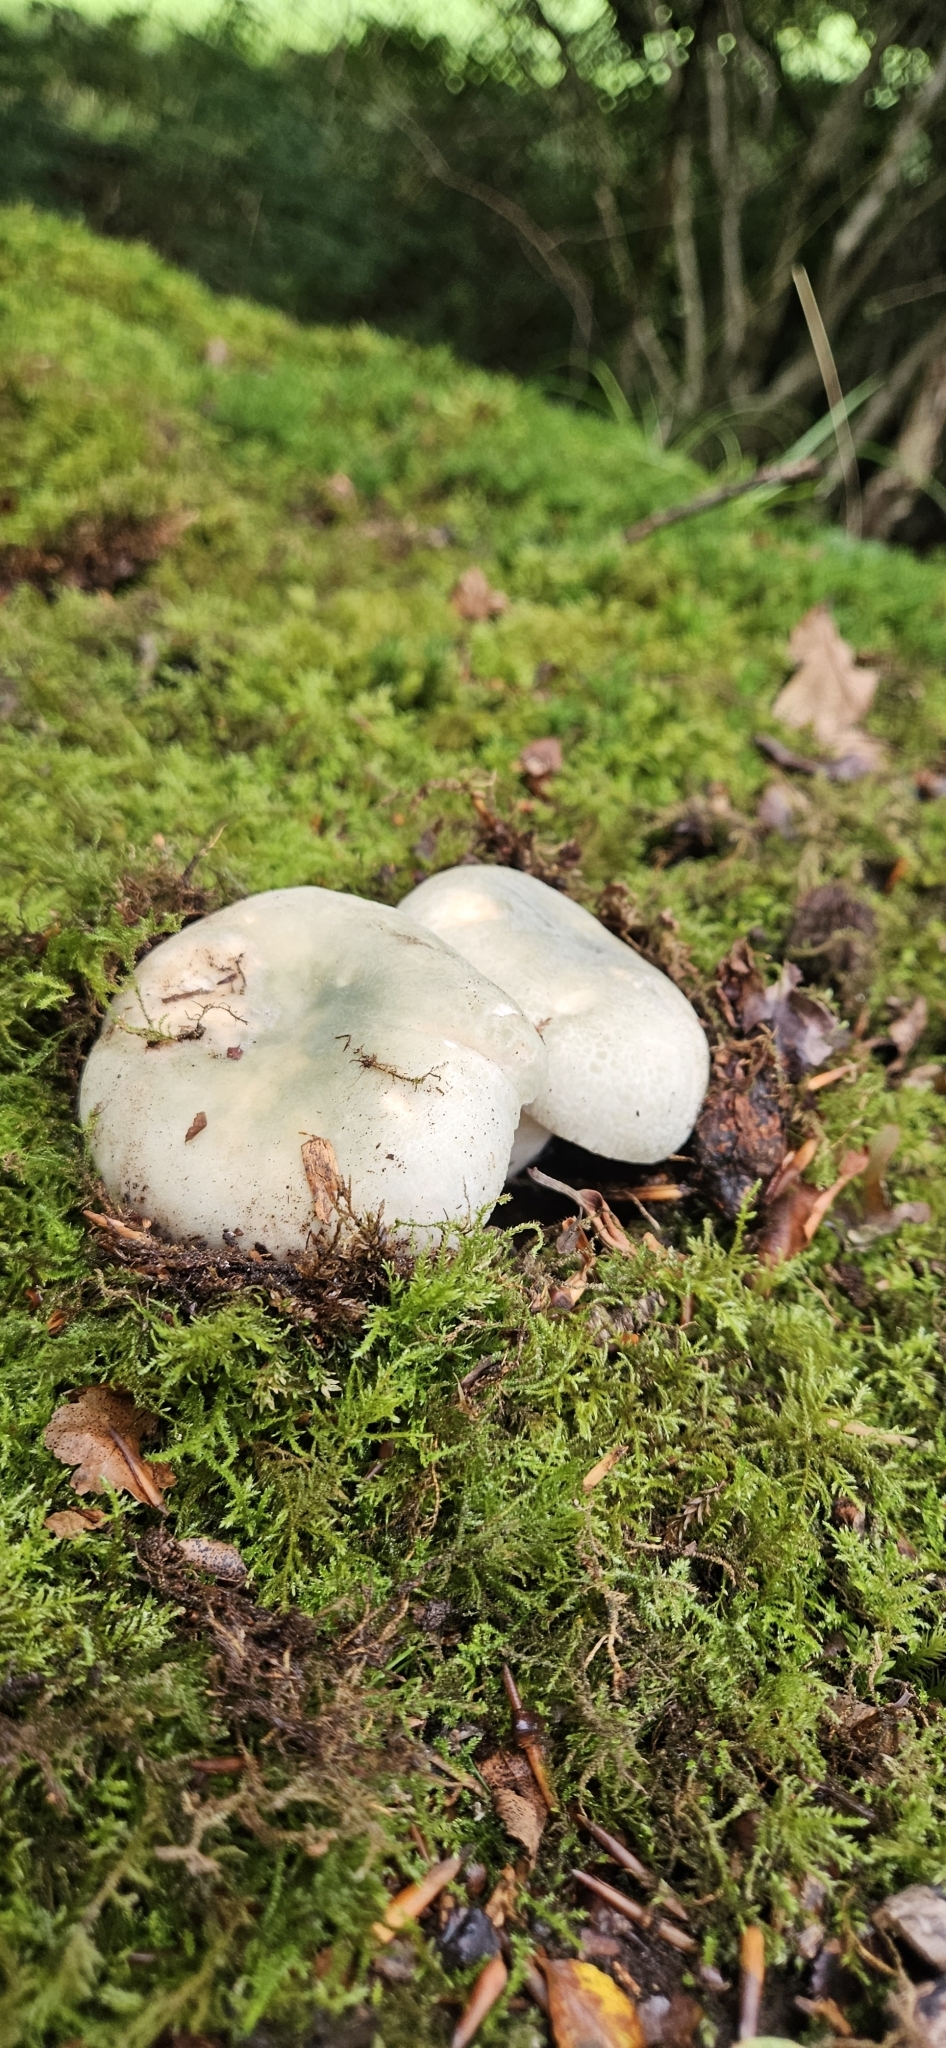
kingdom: Fungi
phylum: Basidiomycota
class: Agaricomycetes
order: Russulales
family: Russulaceae
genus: Russula
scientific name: Russula virescens
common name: Greencracked brittlegill
